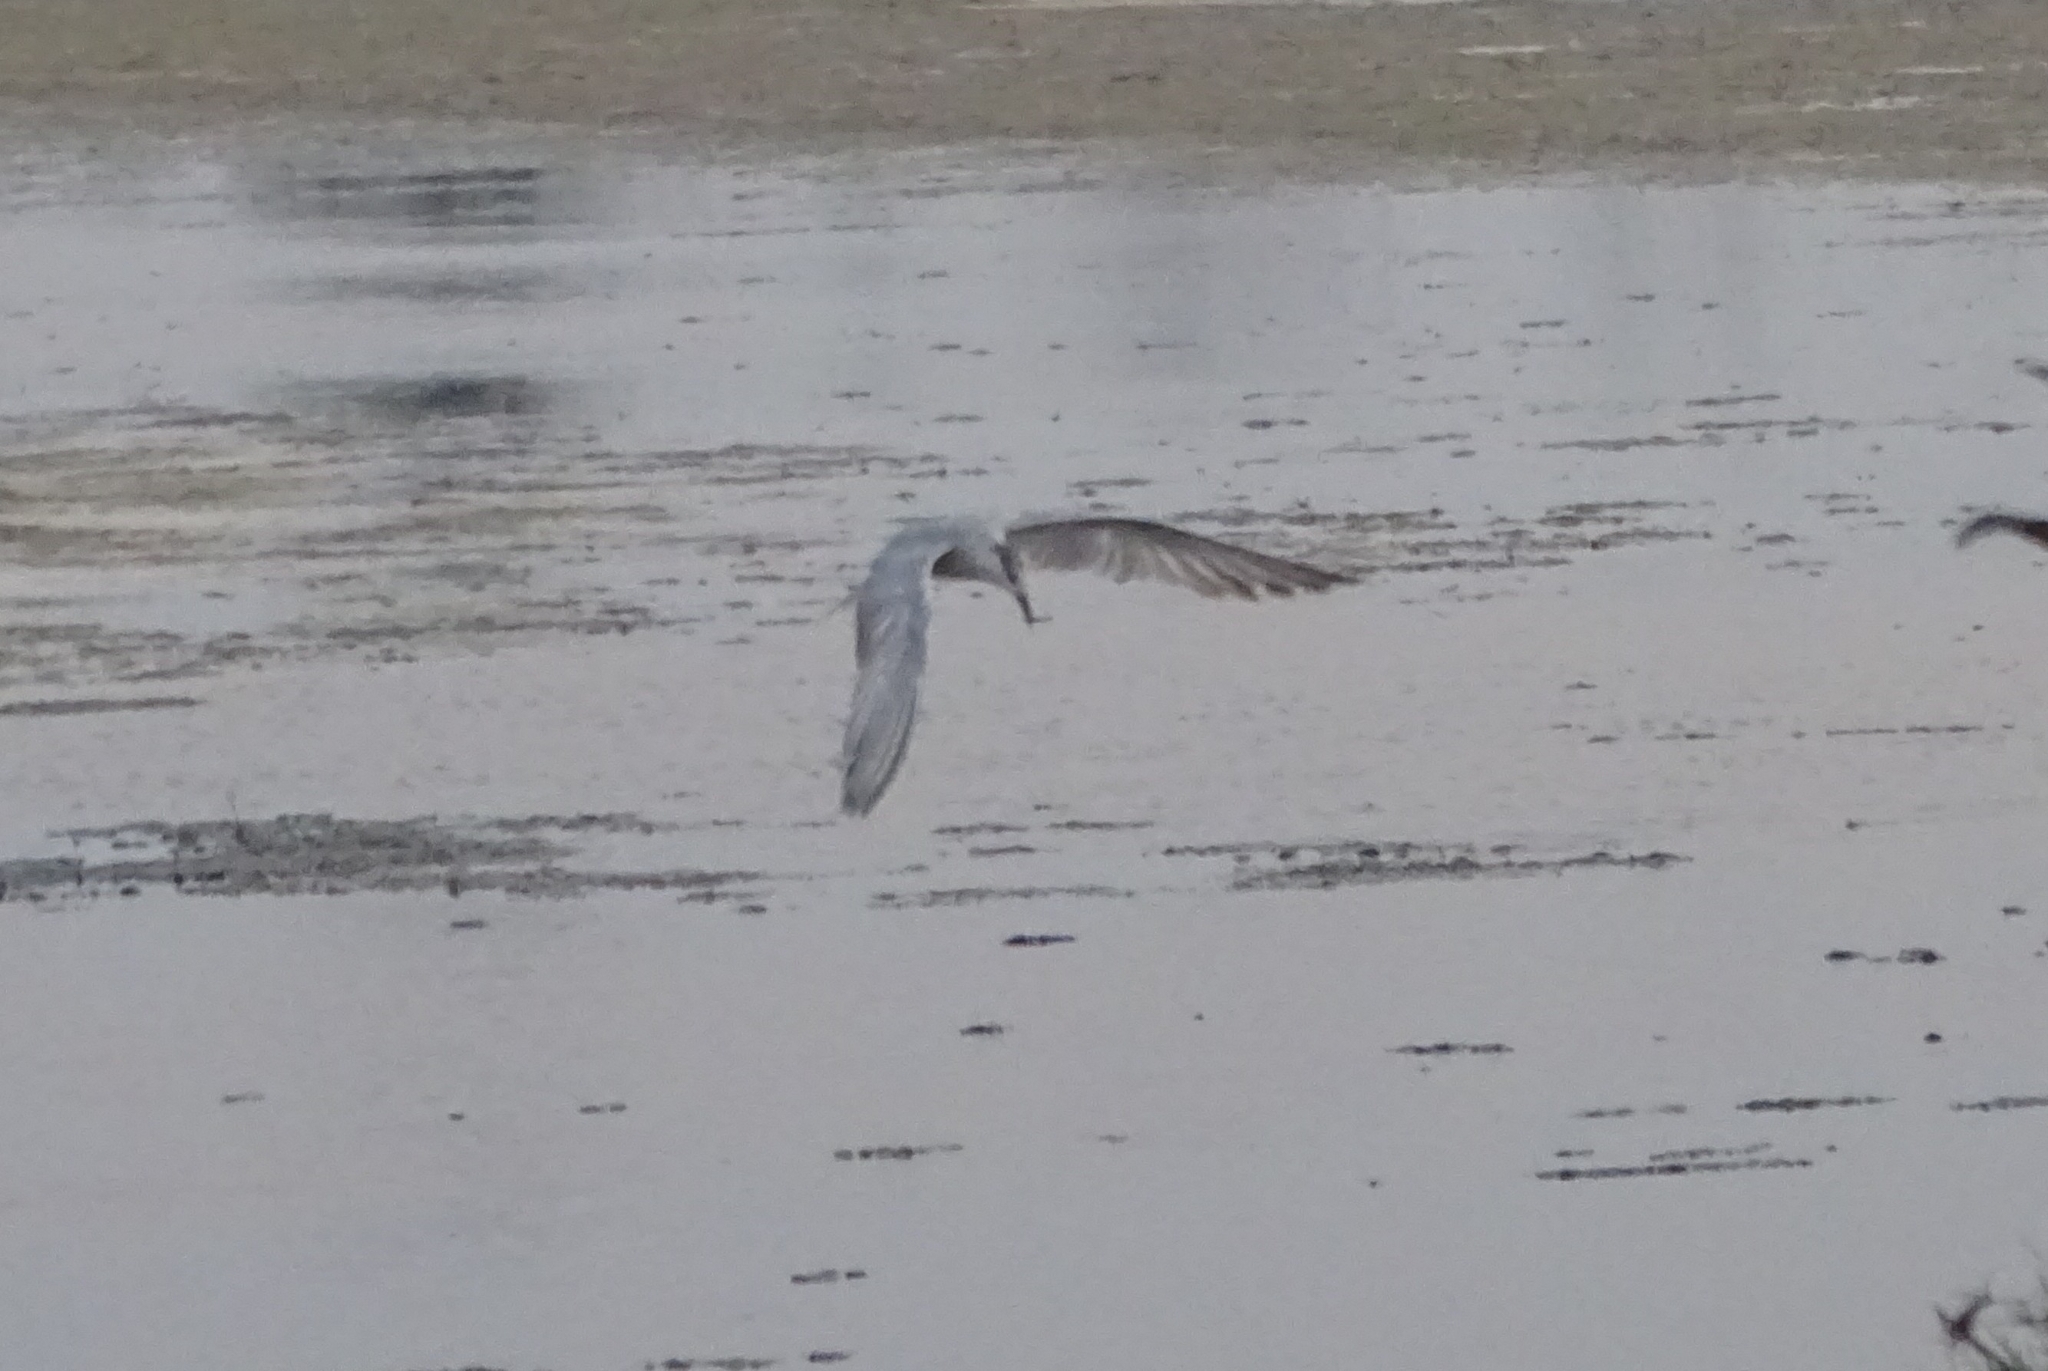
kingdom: Animalia
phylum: Chordata
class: Aves
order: Charadriiformes
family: Laridae
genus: Chlidonias
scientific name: Chlidonias hybrida
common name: Whiskered tern
